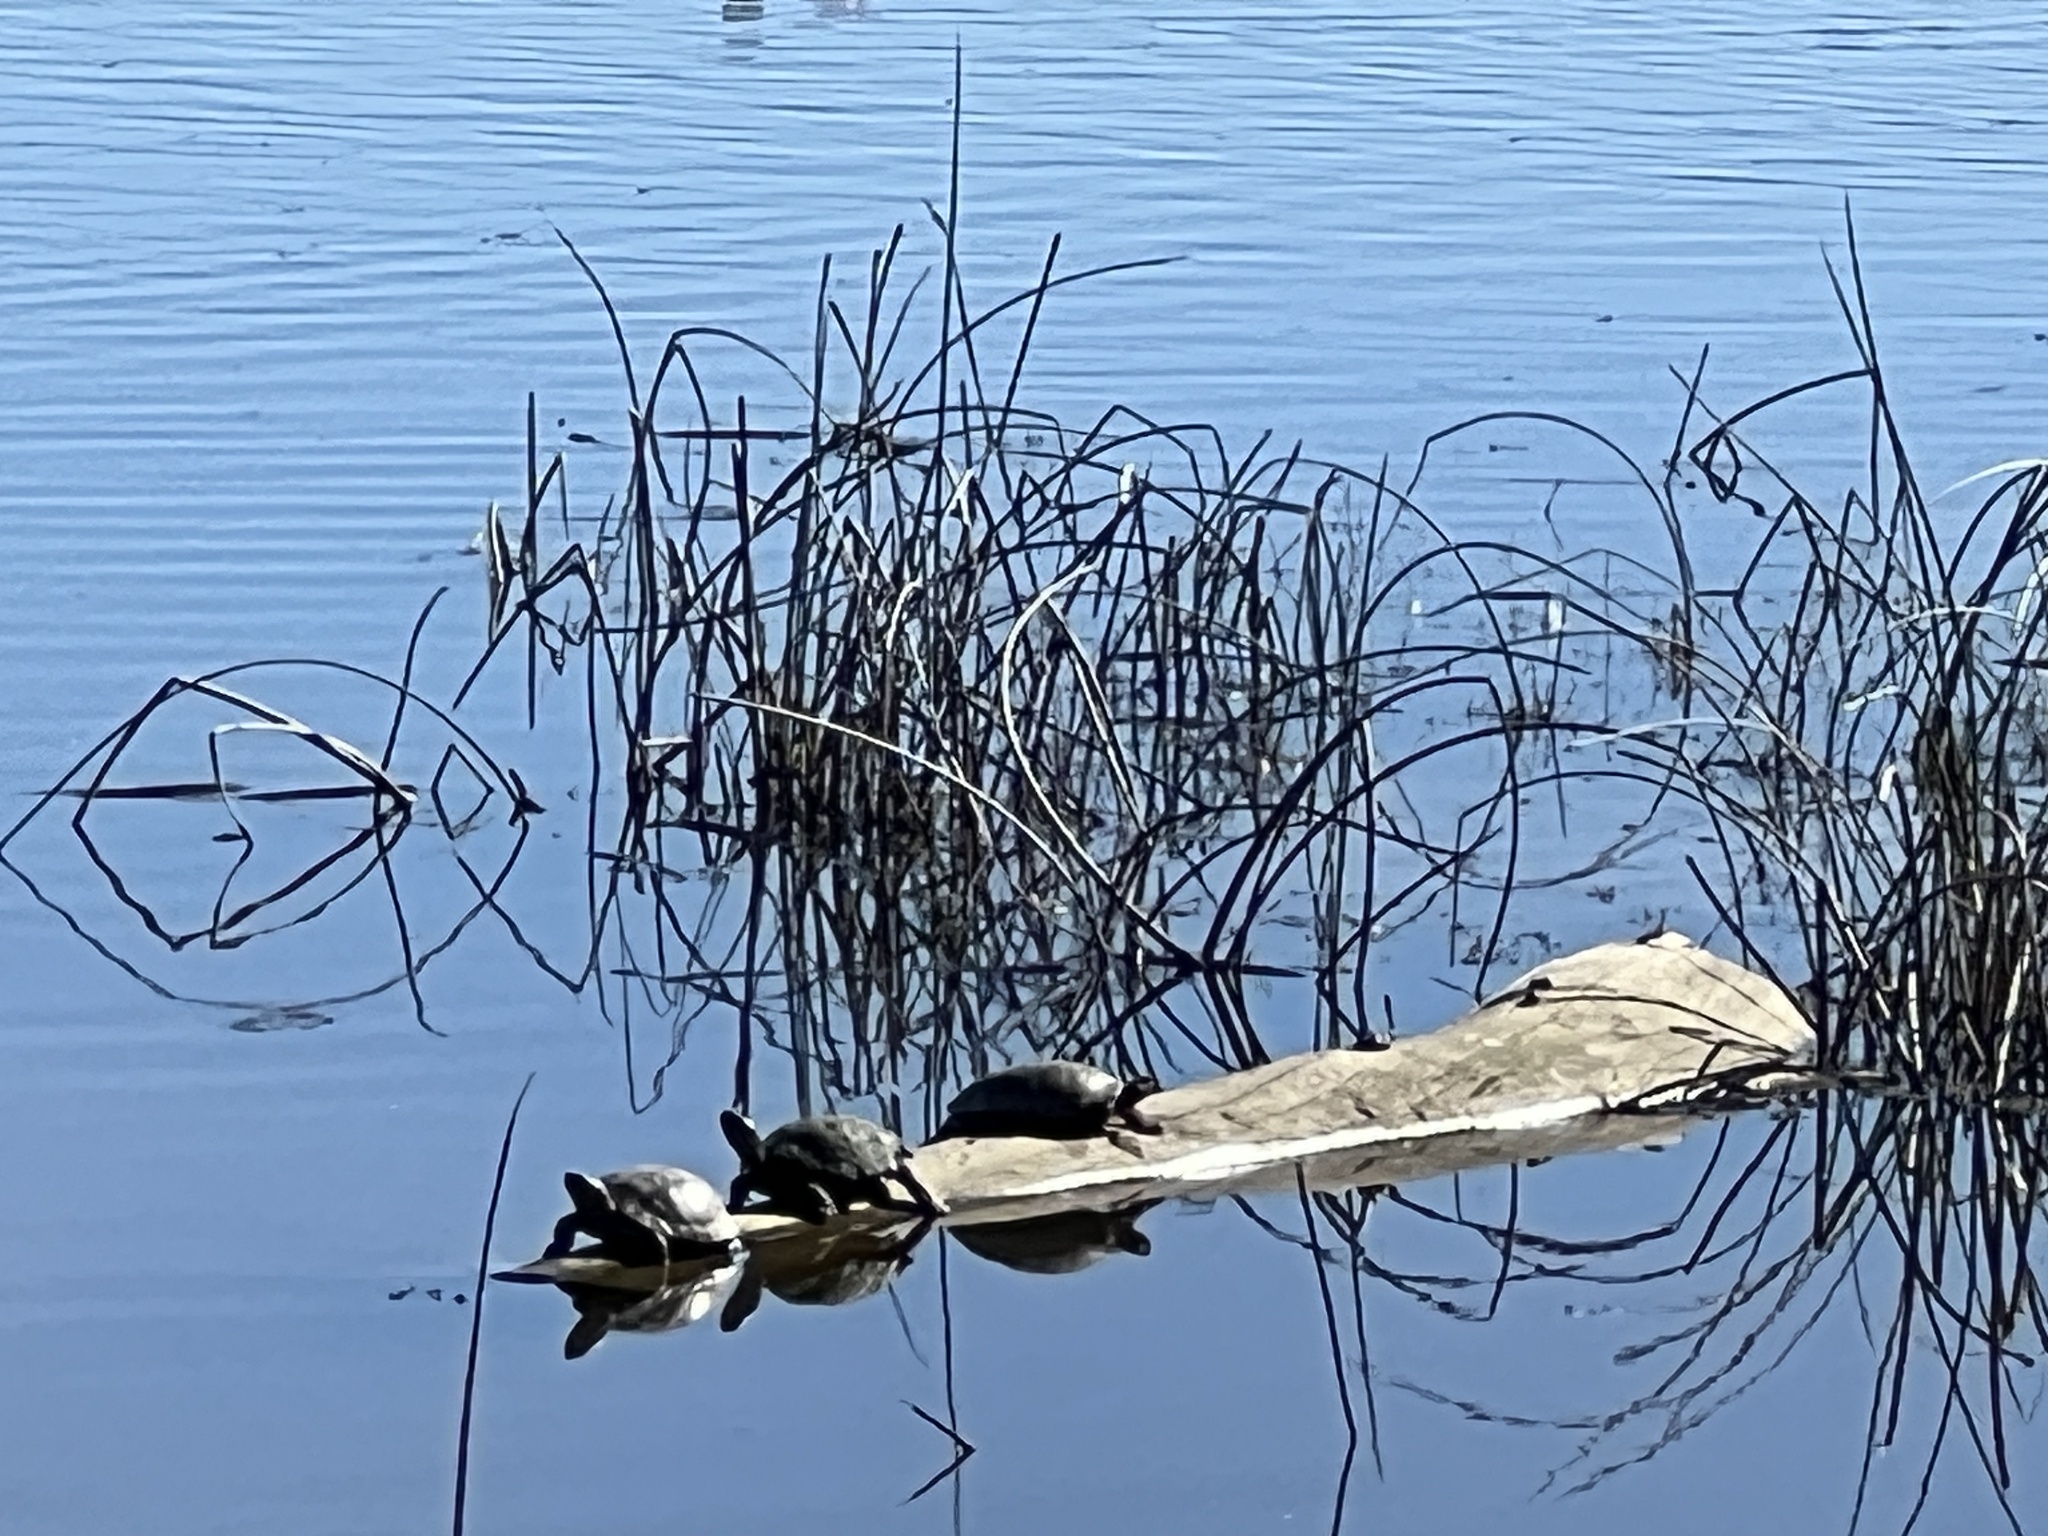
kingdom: Animalia
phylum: Chordata
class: Testudines
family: Emydidae
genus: Actinemys
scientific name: Actinemys marmorata
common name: Western pond turtle
